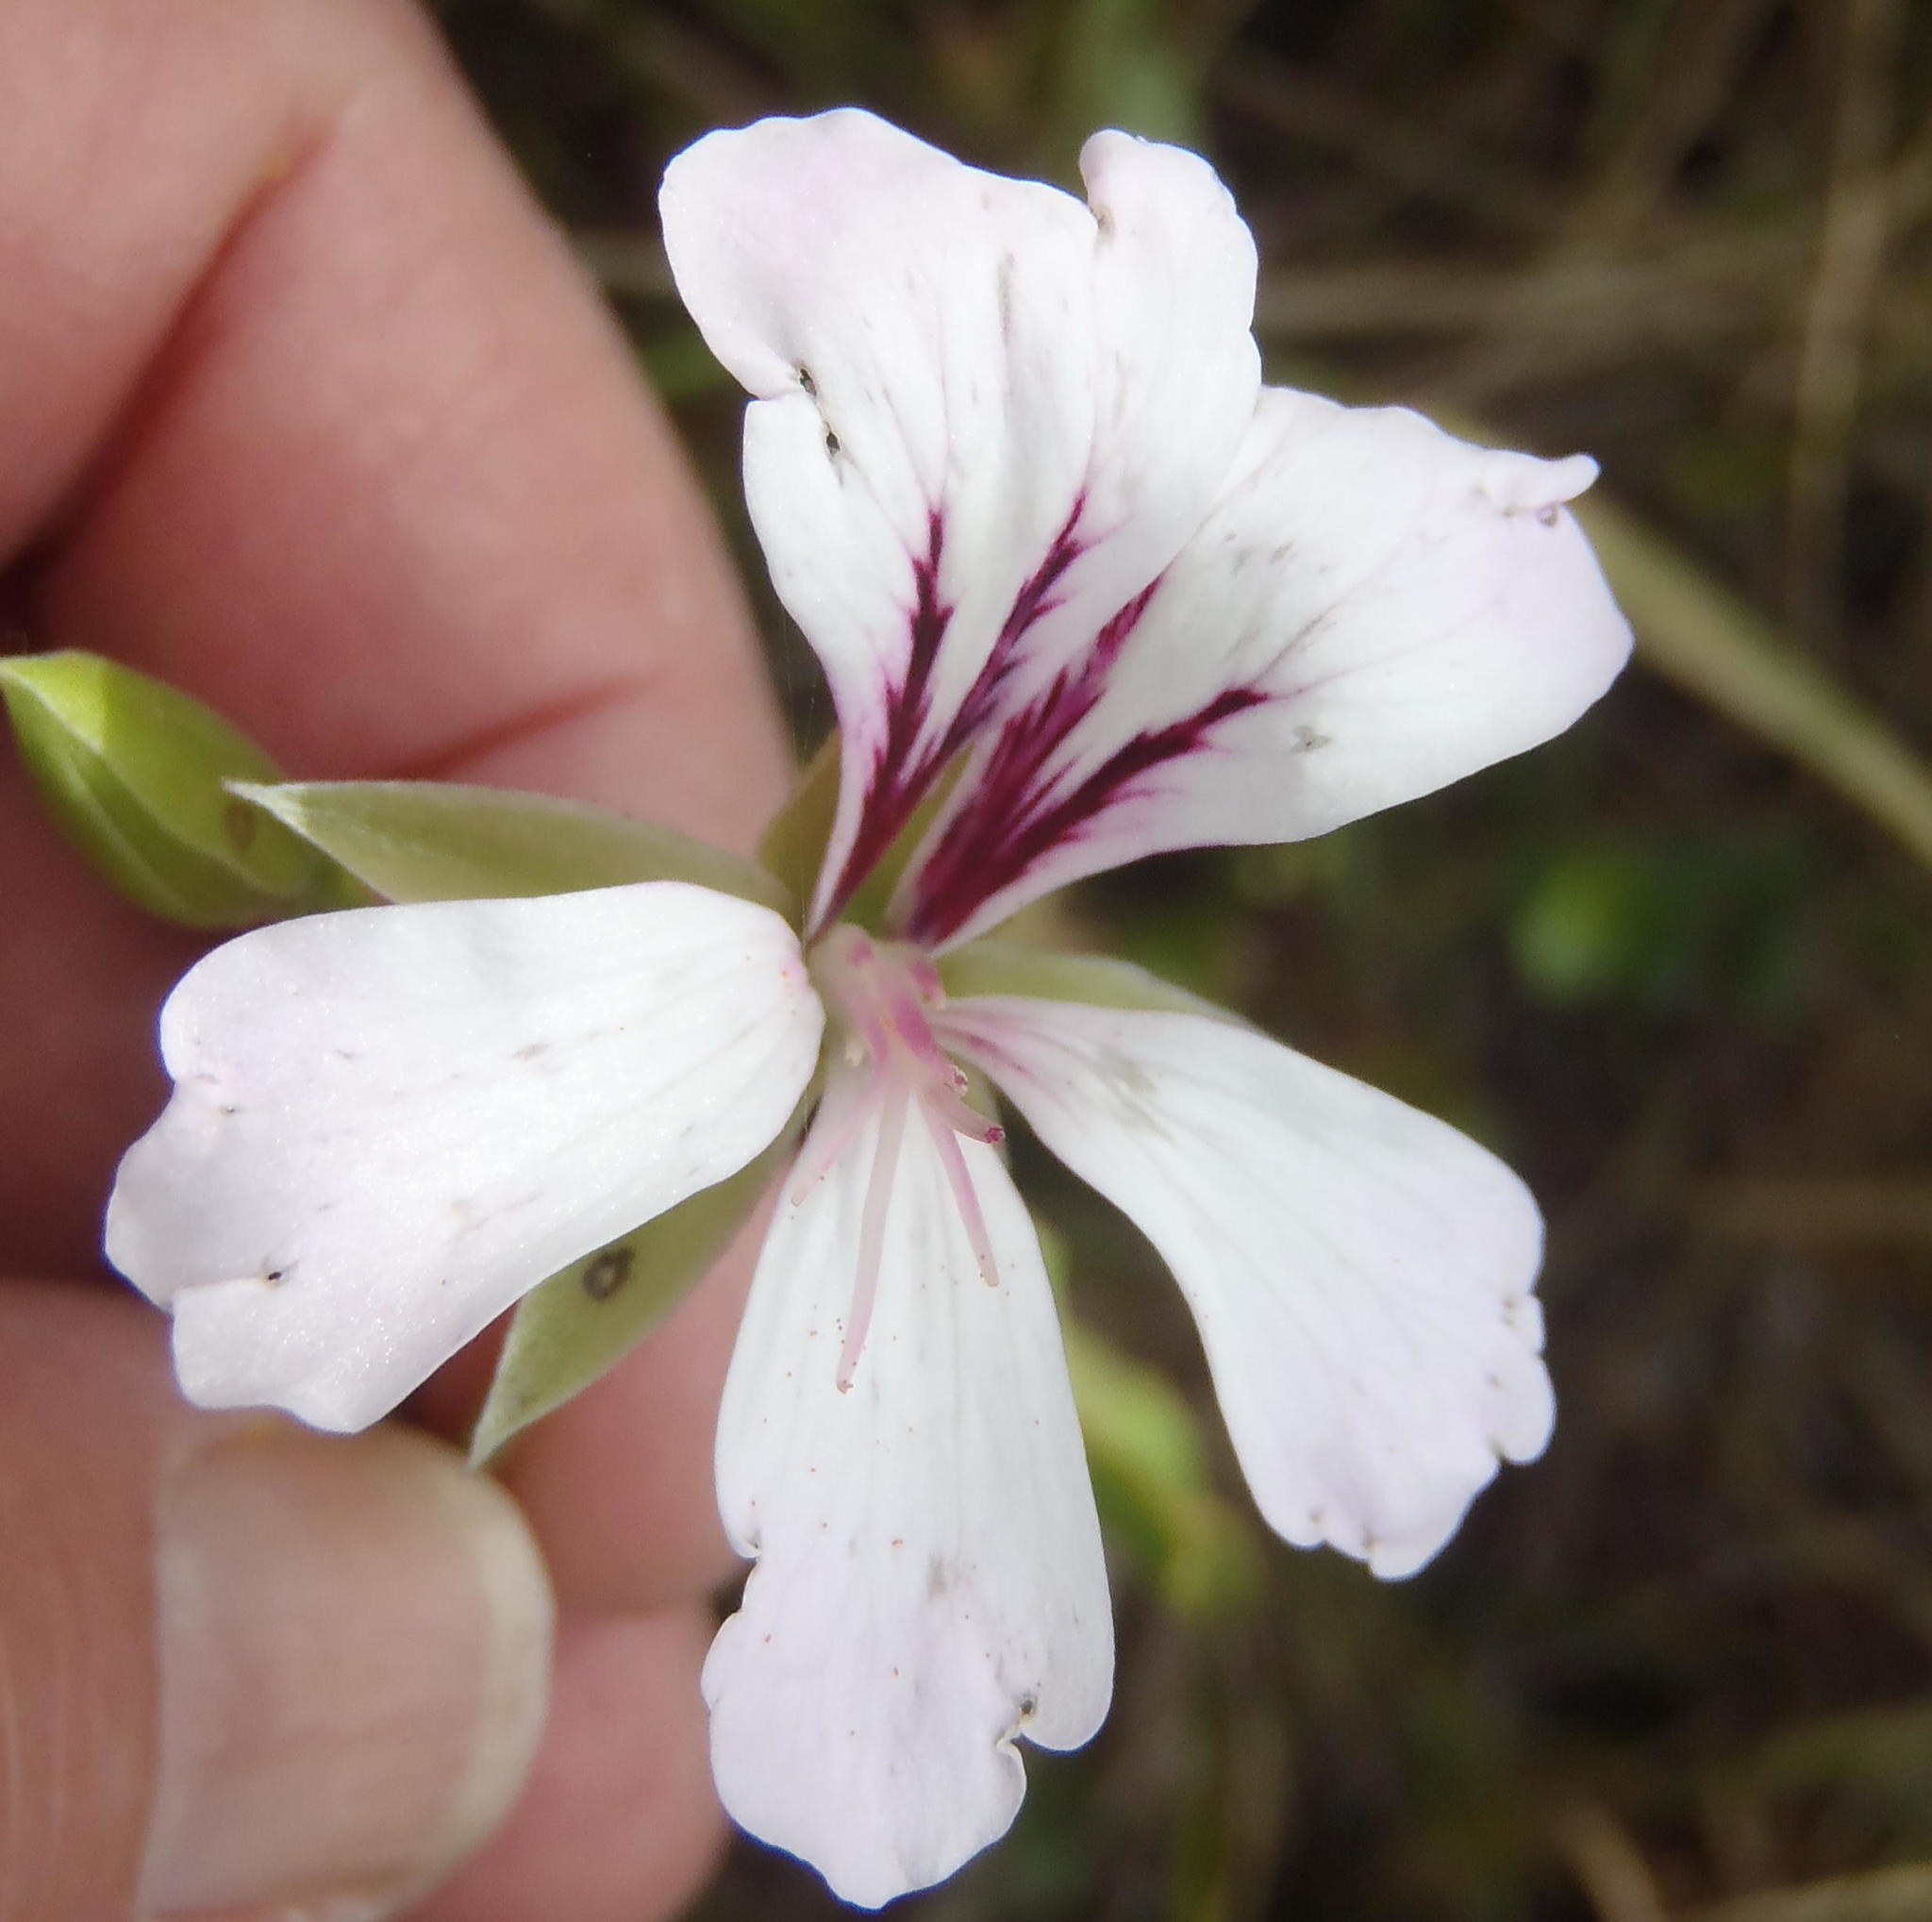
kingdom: Plantae
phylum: Tracheophyta
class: Magnoliopsida
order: Geraniales
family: Geraniaceae
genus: Pelargonium
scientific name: Pelargonium peltatum
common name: Ivyleaf geranium
